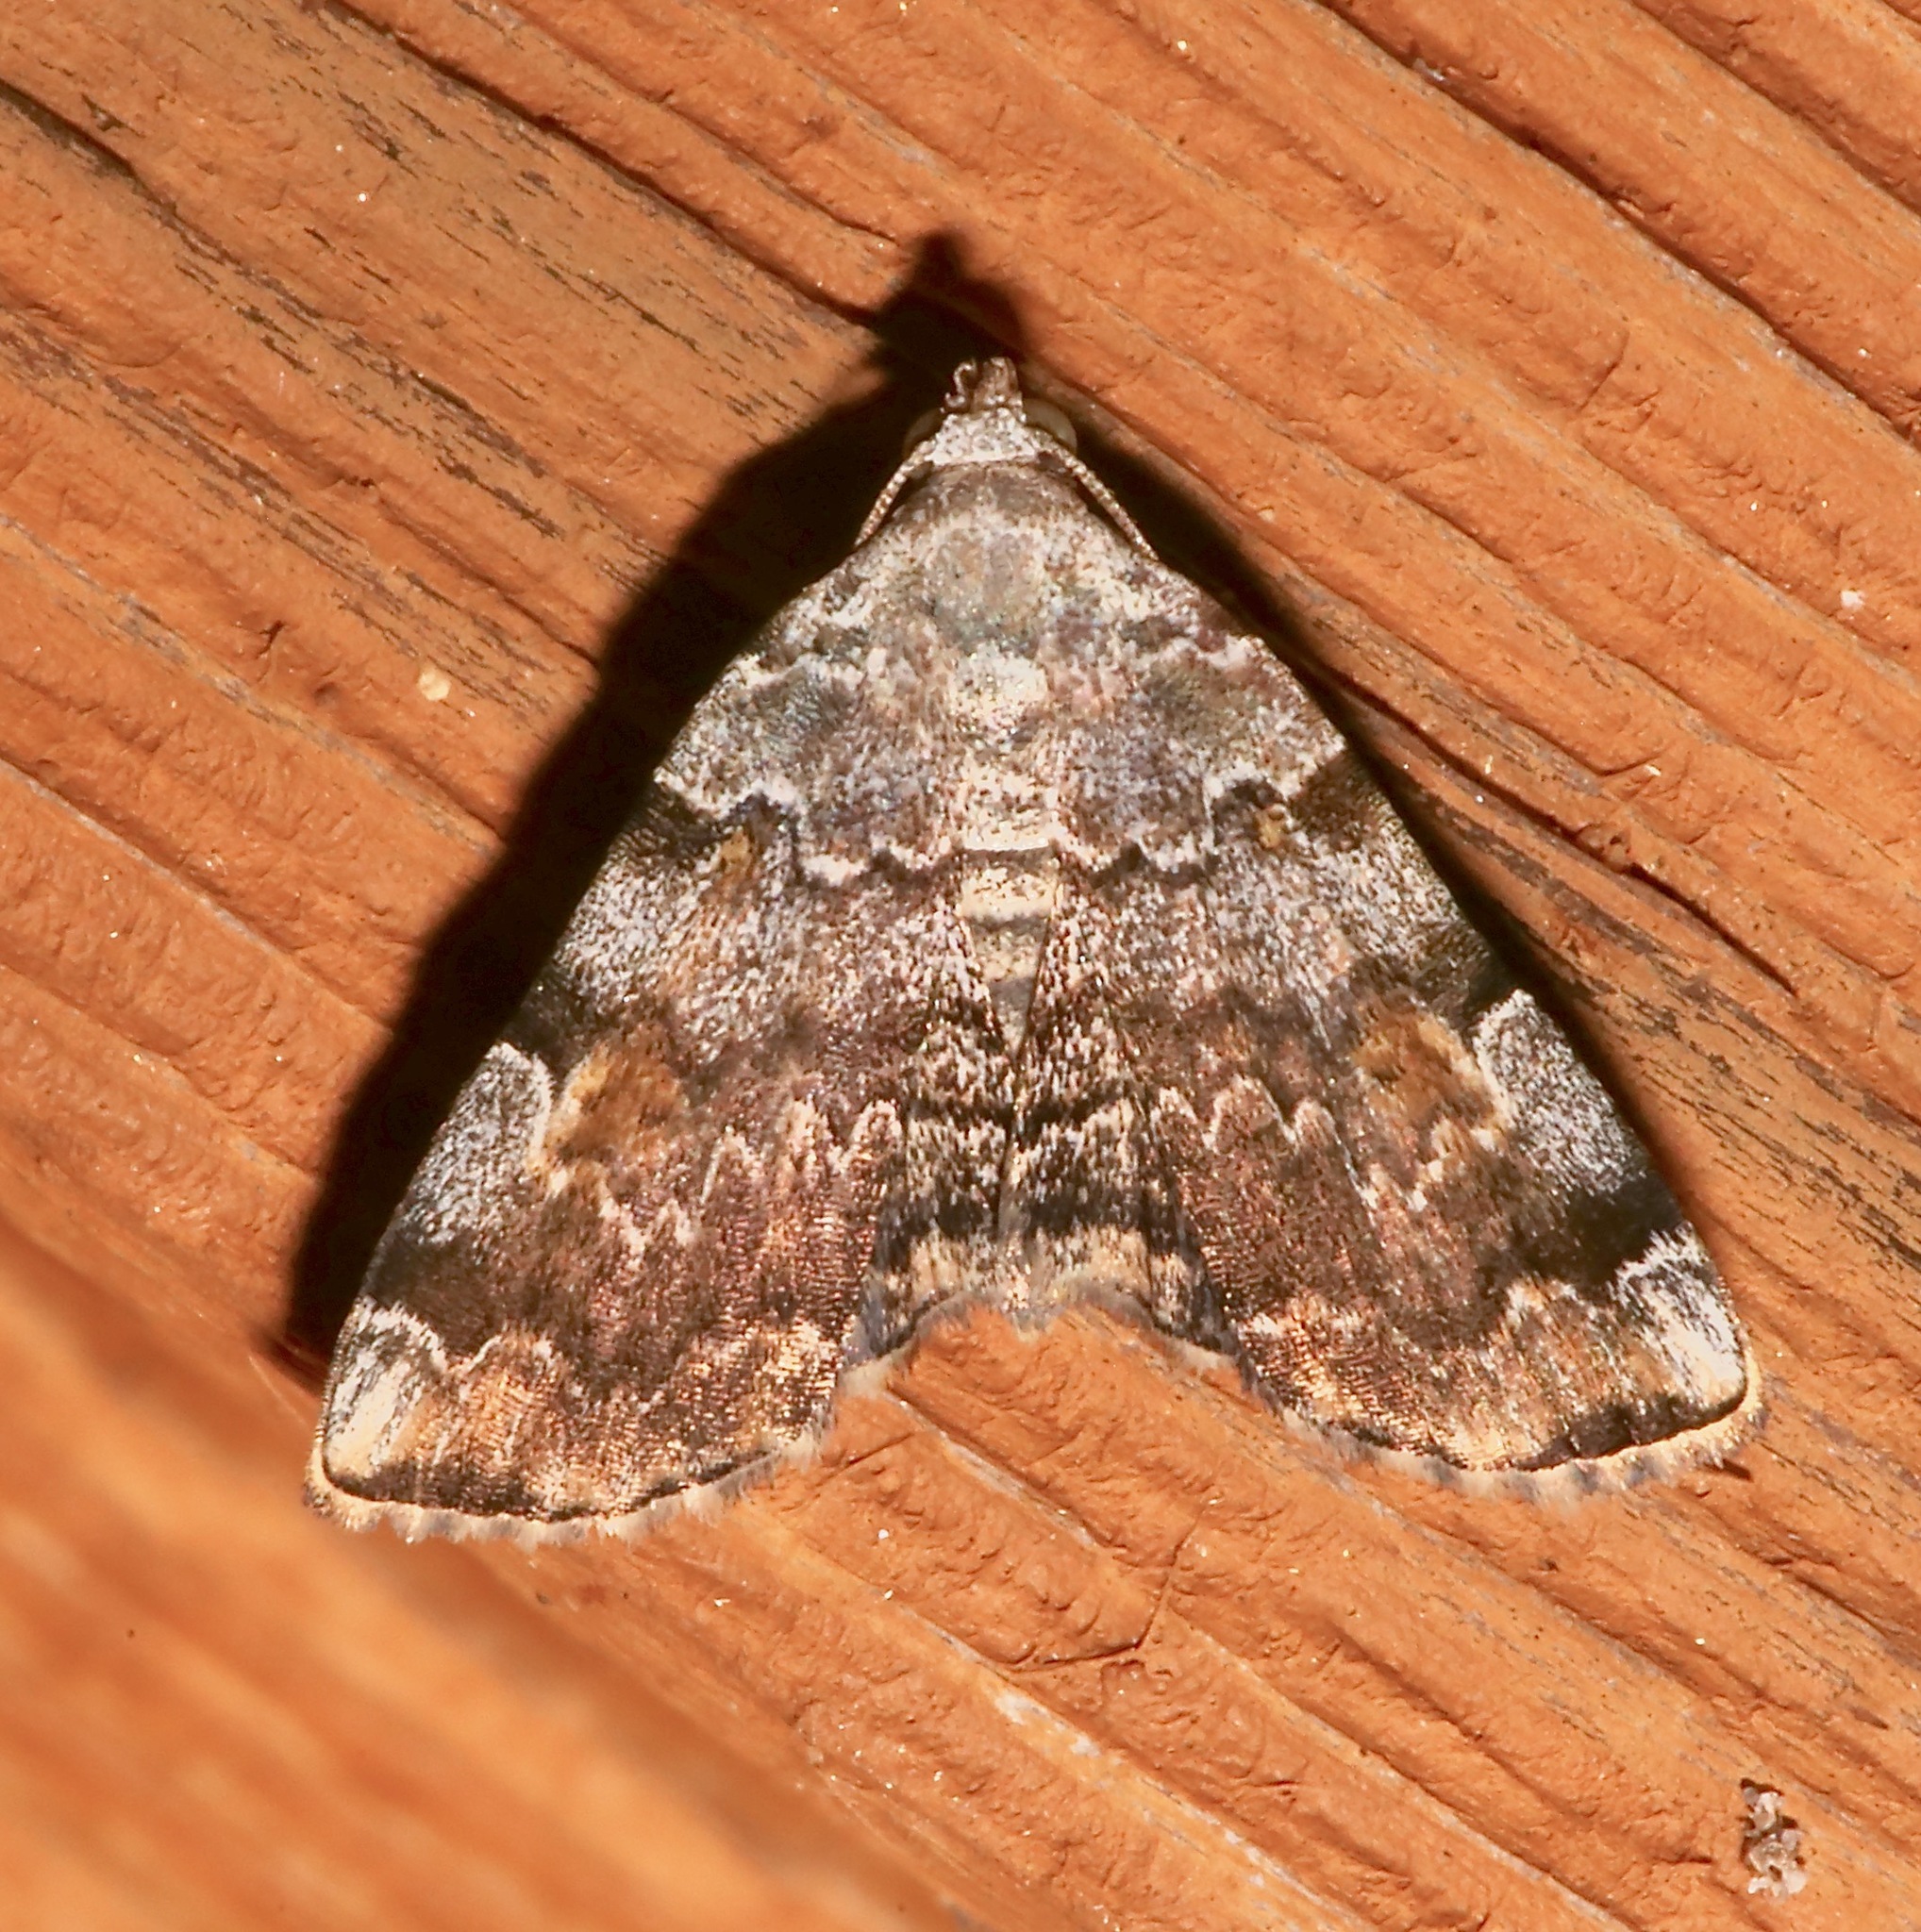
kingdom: Animalia
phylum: Arthropoda
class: Insecta
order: Lepidoptera
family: Erebidae
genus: Idia
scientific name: Idia americalis
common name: American idia moth
